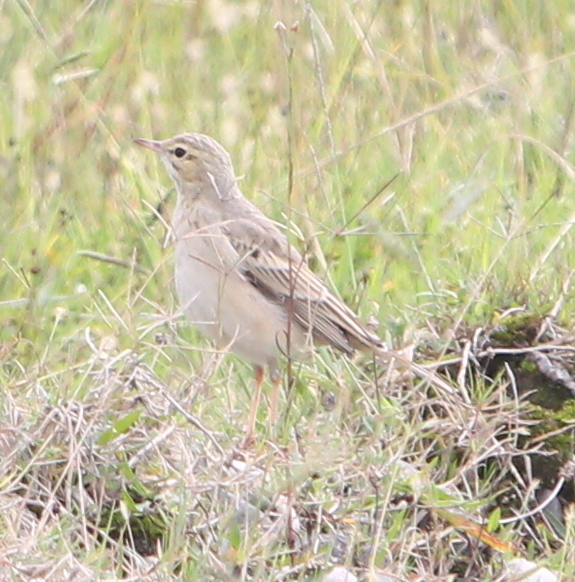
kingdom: Animalia
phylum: Chordata
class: Aves
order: Passeriformes
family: Motacillidae
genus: Anthus
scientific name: Anthus campestris
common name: Tawny pipit
